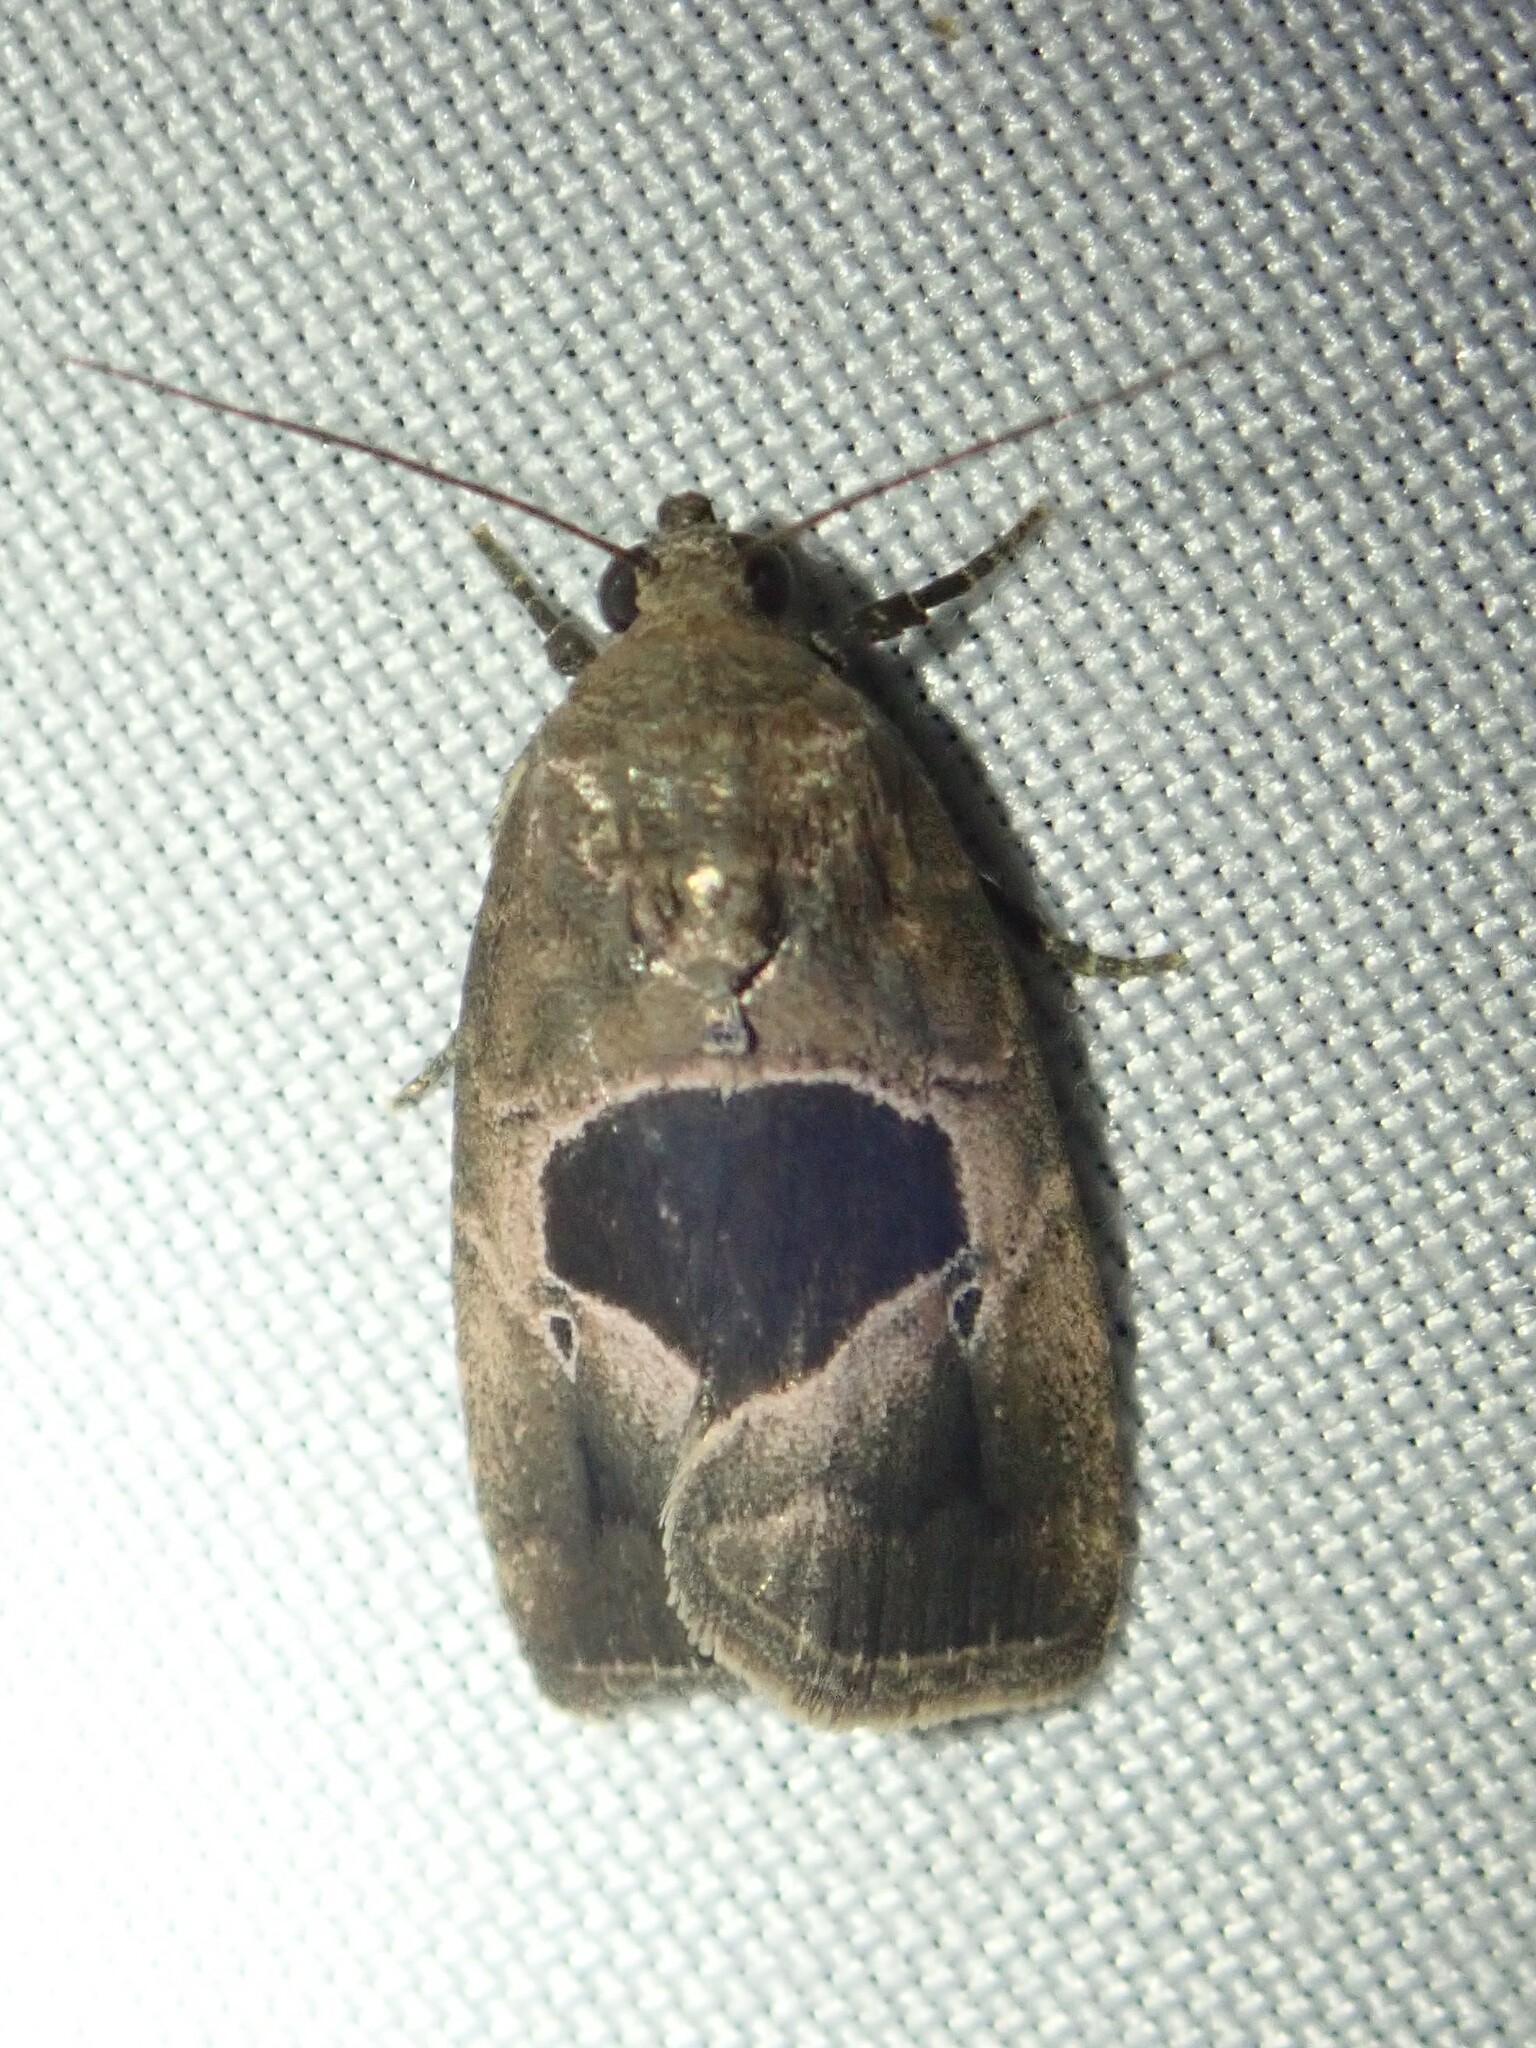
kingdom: Animalia
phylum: Arthropoda
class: Insecta
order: Lepidoptera
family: Noctuidae
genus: Elaphria
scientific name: Elaphria deltoides
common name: Cutworm moth
